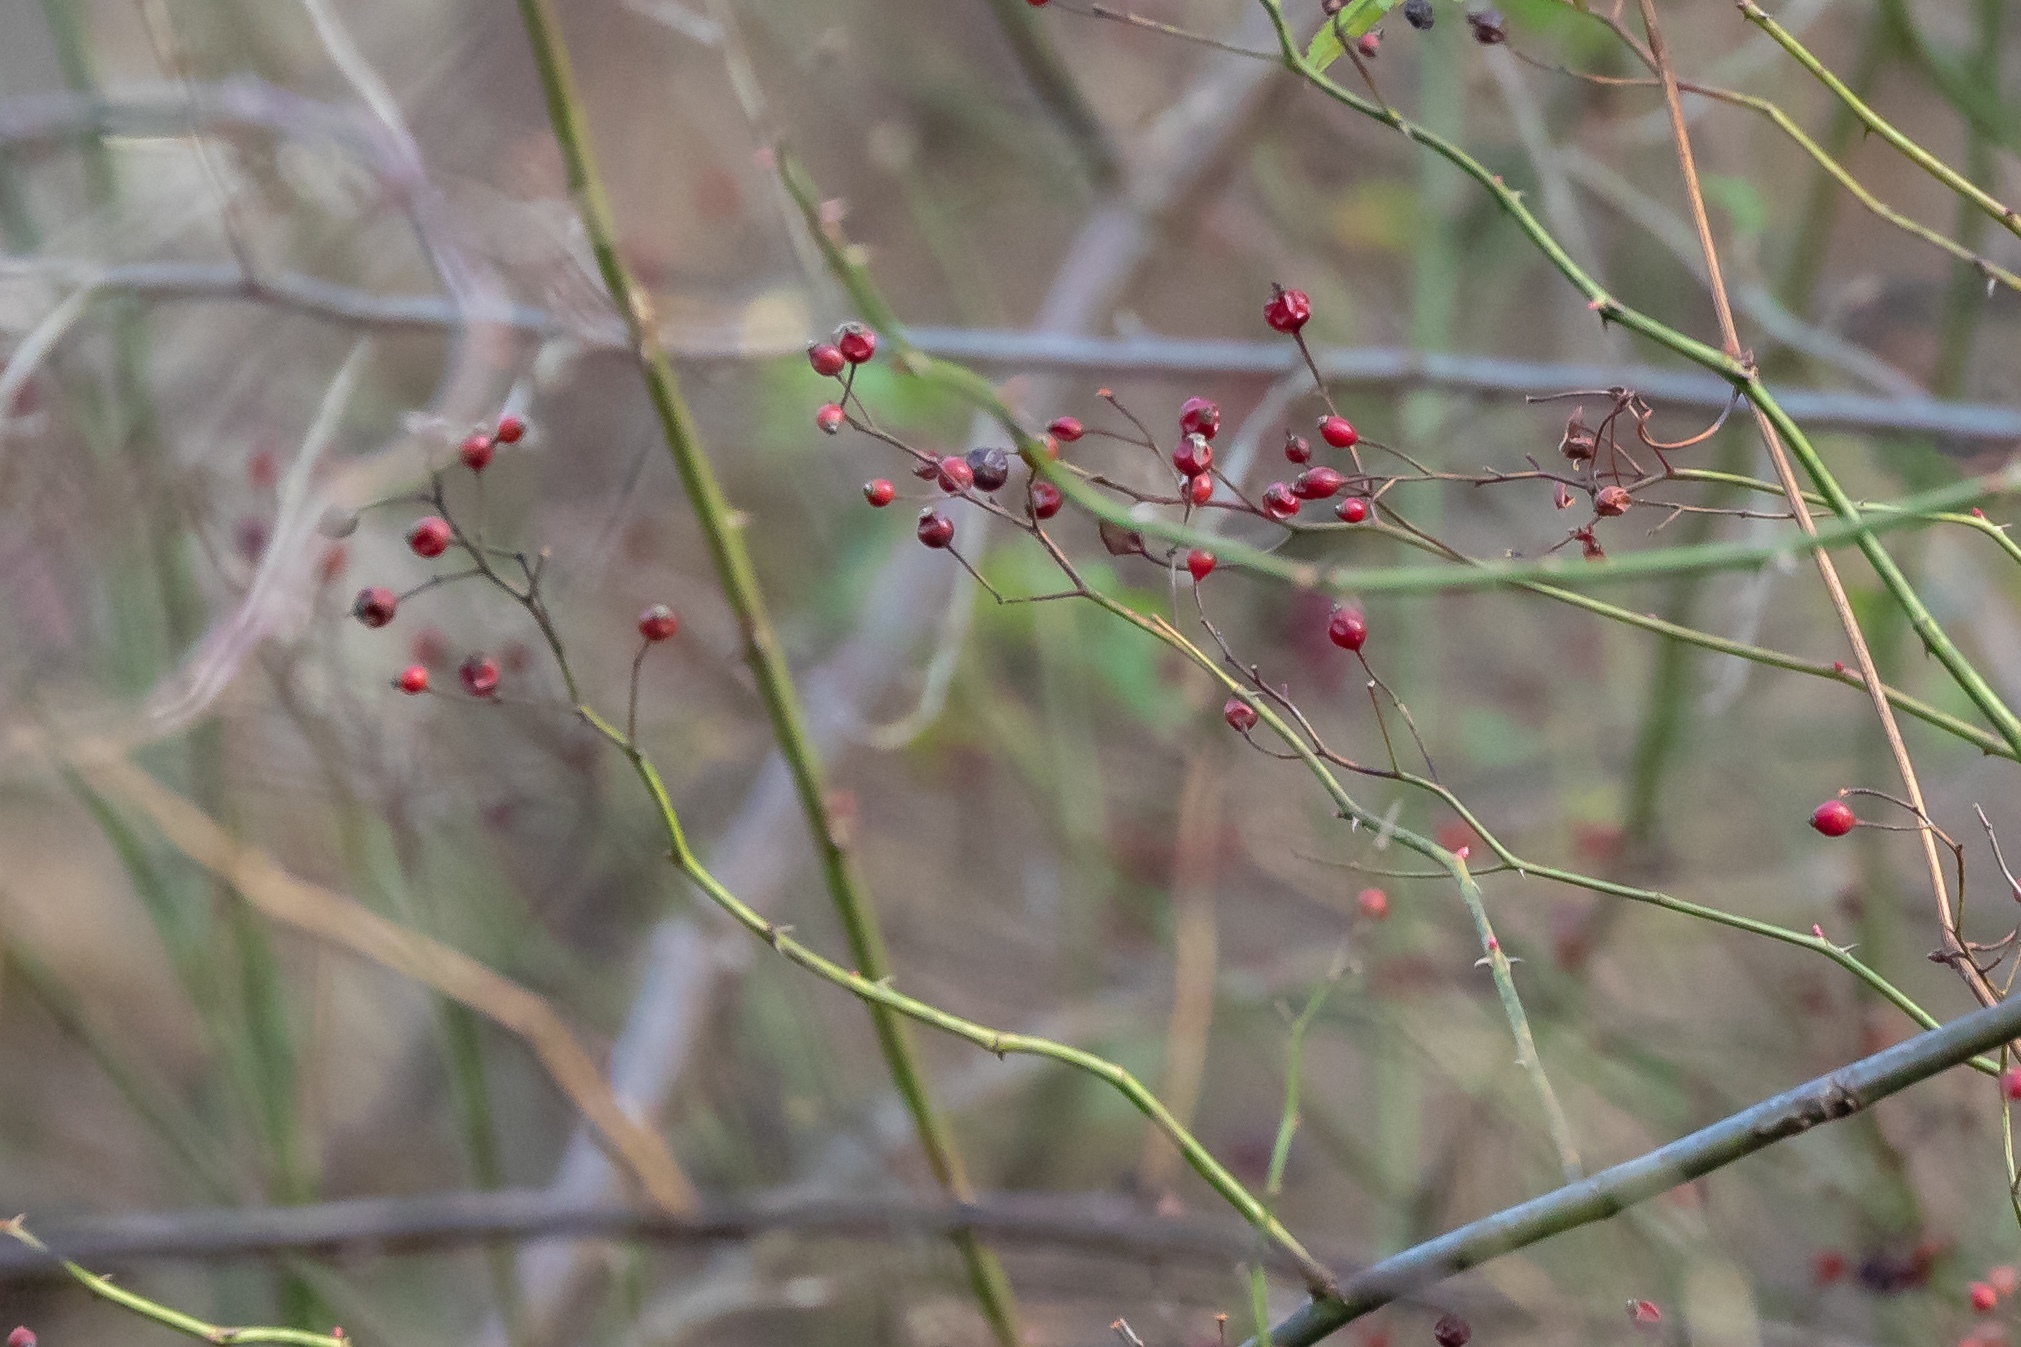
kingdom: Plantae
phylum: Tracheophyta
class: Magnoliopsida
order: Rosales
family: Rosaceae
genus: Rosa
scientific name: Rosa multiflora
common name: Multiflora rose
